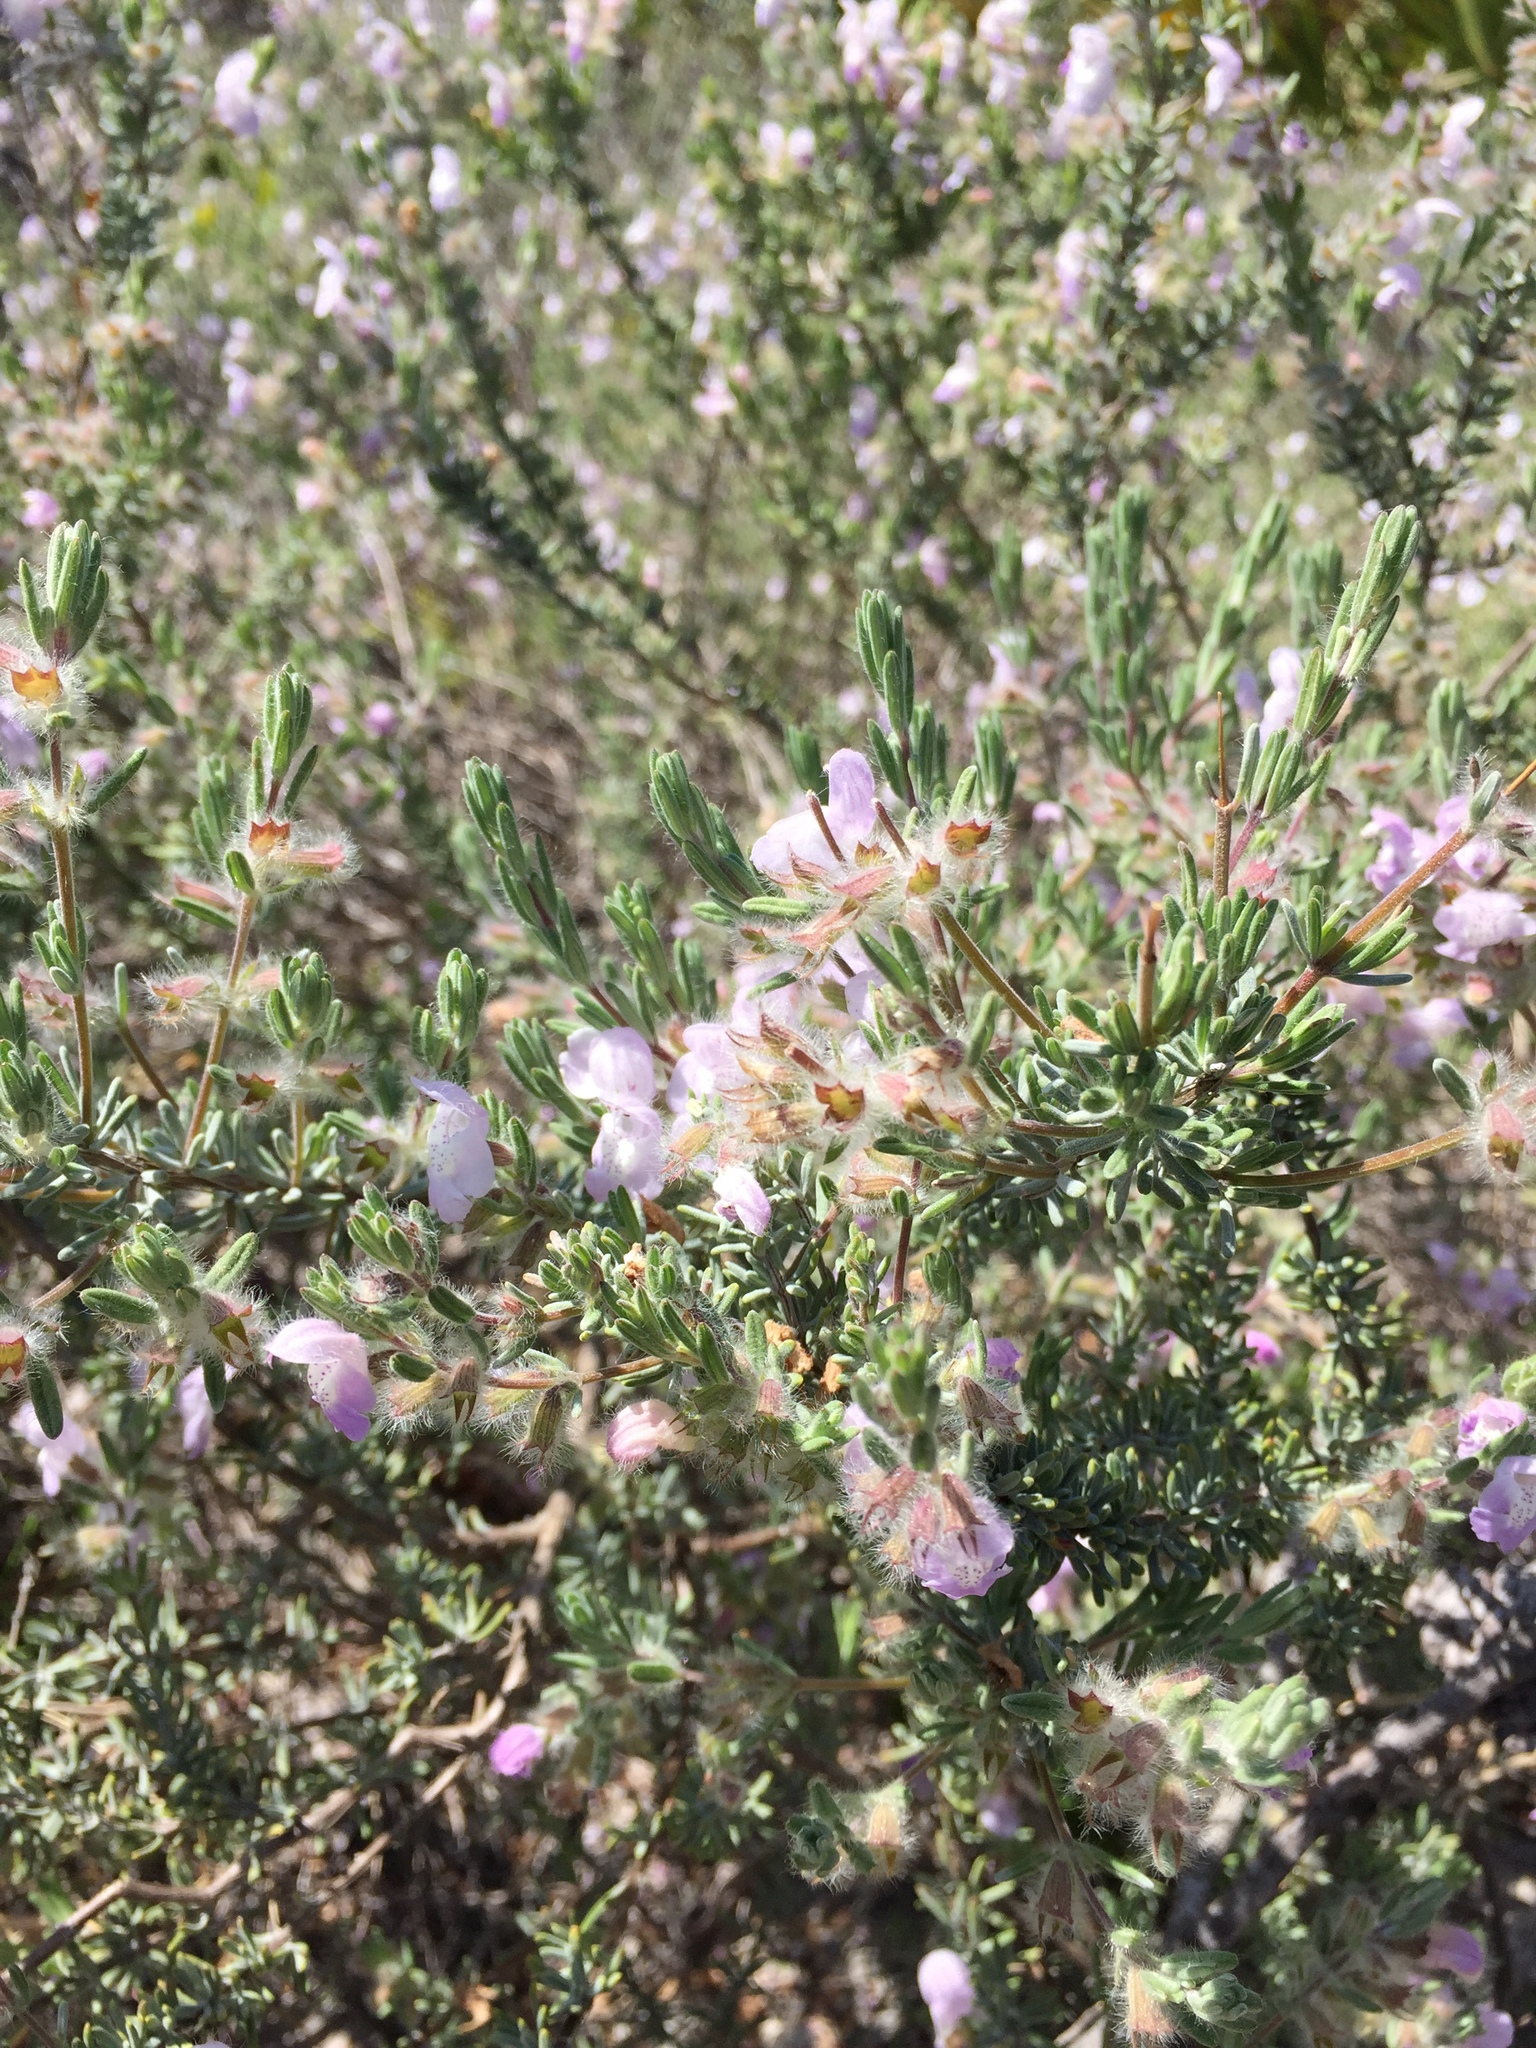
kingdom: Plantae
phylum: Tracheophyta
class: Magnoliopsida
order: Lamiales
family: Lamiaceae
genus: Conradina
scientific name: Conradina canescens
